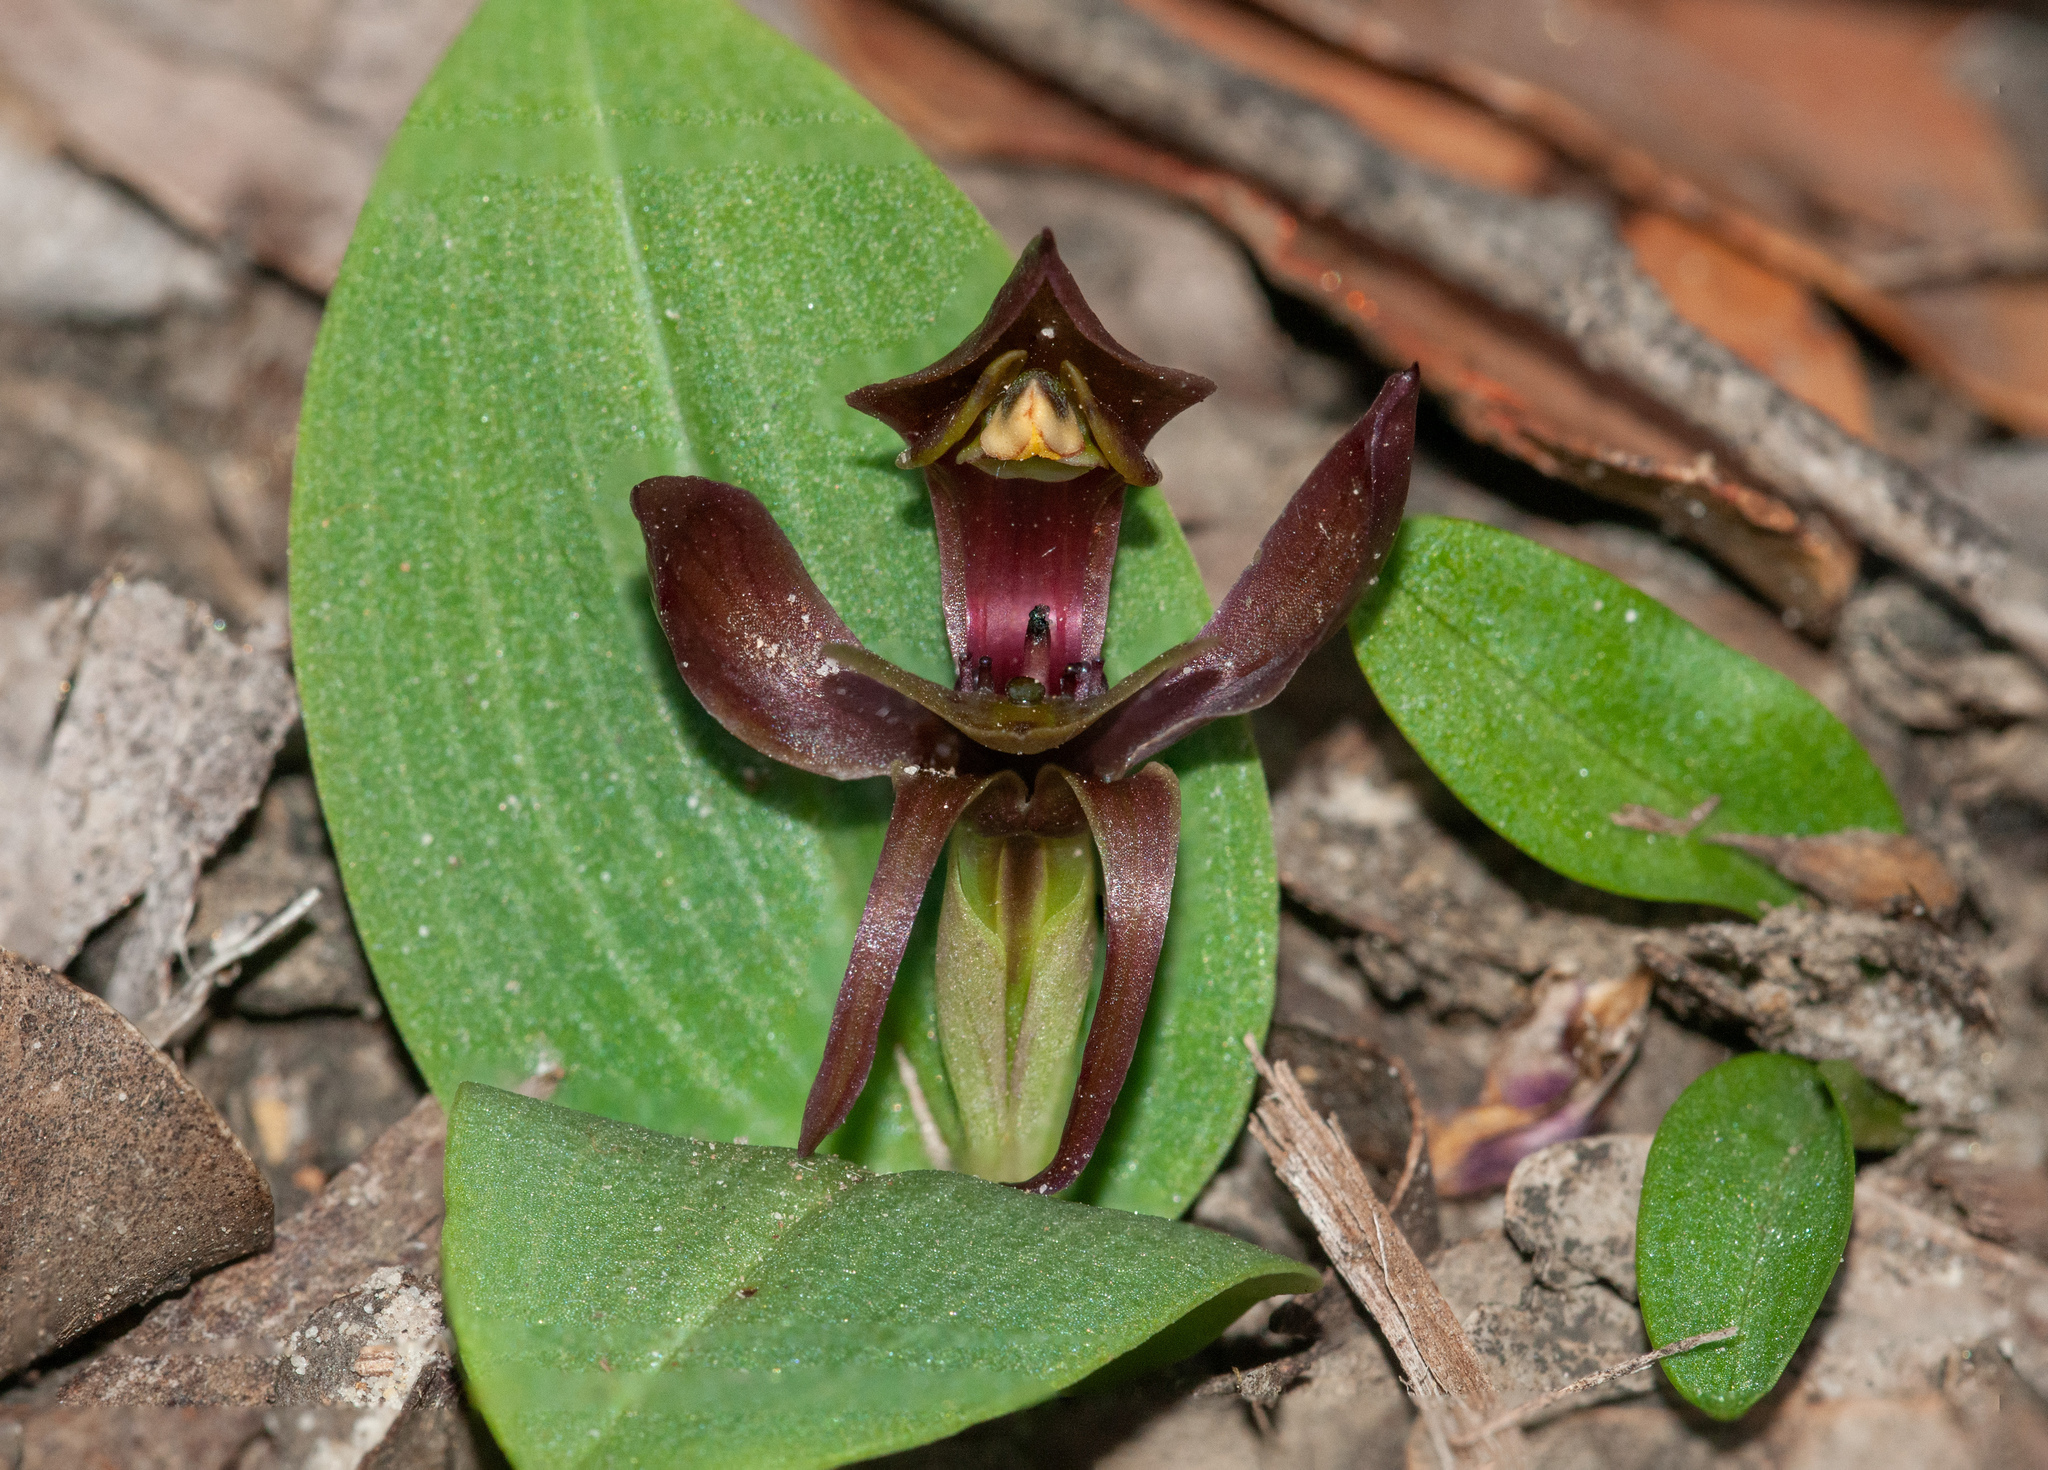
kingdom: Plantae
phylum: Tracheophyta
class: Liliopsida
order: Asparagales
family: Orchidaceae
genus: Chiloglottis
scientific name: Chiloglottis valida
